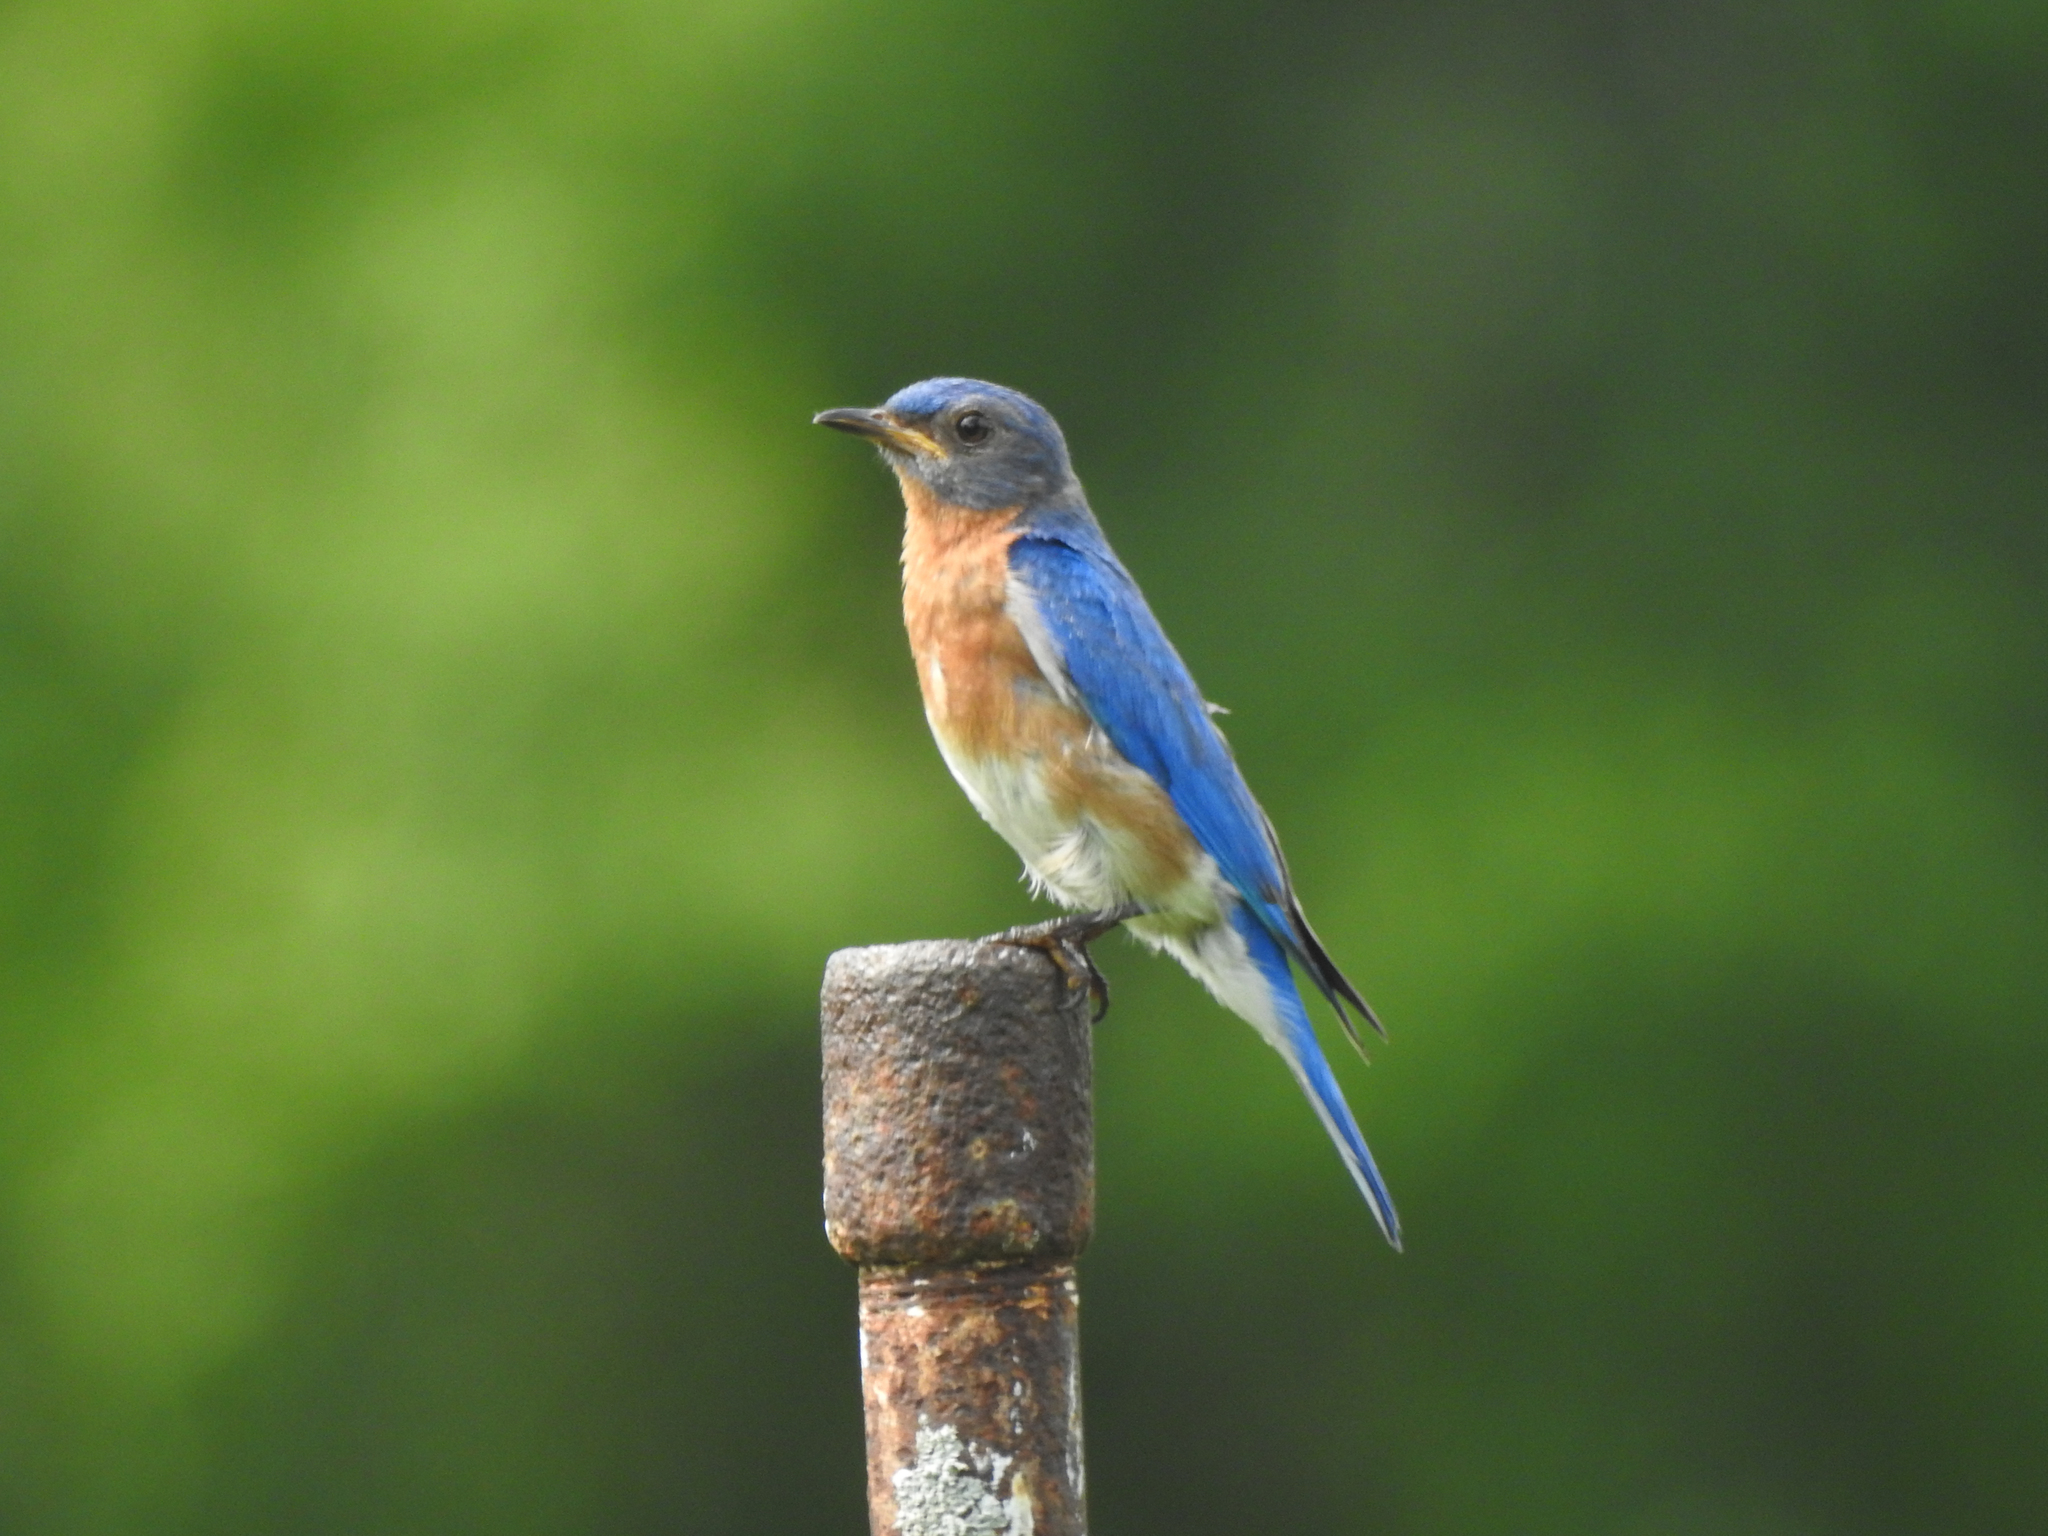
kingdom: Animalia
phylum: Chordata
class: Aves
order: Passeriformes
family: Turdidae
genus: Sialia
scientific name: Sialia sialis
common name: Eastern bluebird
